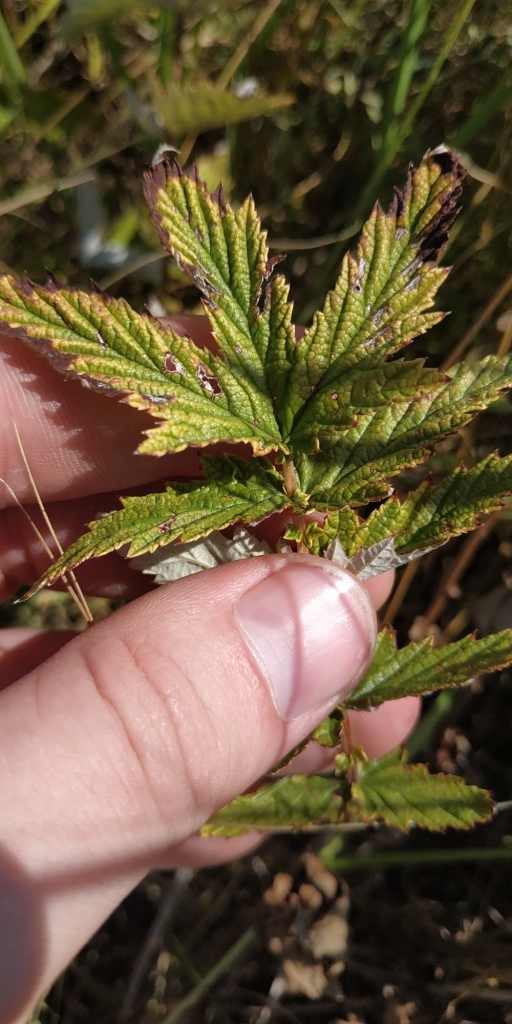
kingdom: Plantae
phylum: Tracheophyta
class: Magnoliopsida
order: Rosales
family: Rosaceae
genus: Filipendula
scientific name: Filipendula ulmaria
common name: Meadowsweet
